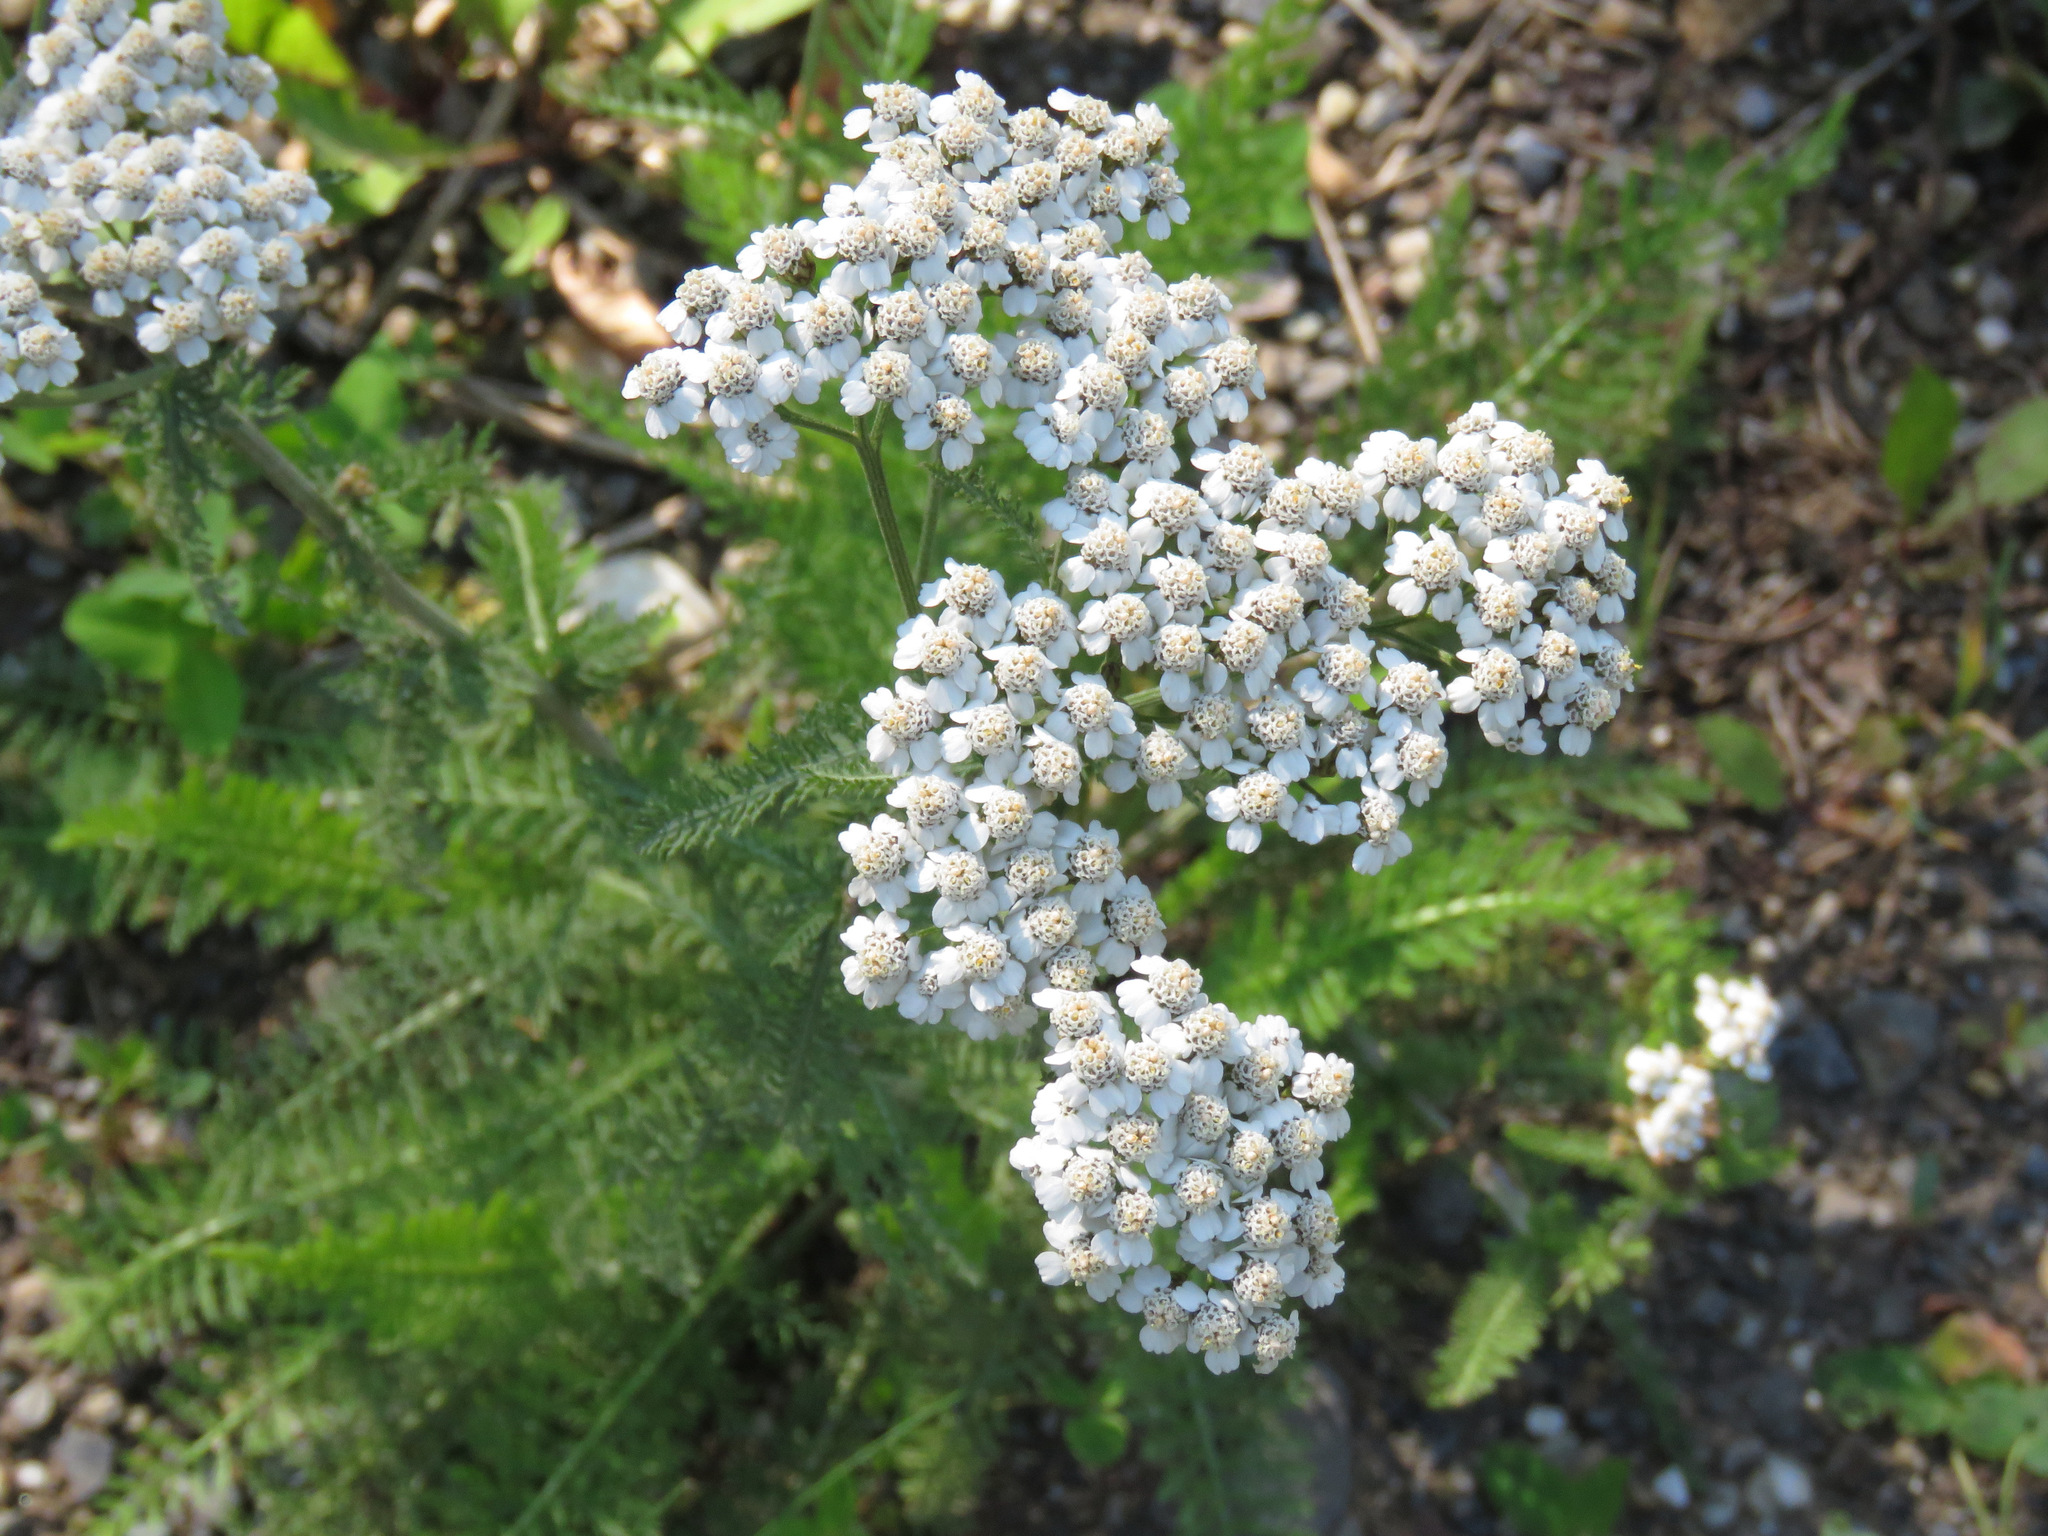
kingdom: Plantae
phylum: Tracheophyta
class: Magnoliopsida
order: Asterales
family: Asteraceae
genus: Achillea
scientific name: Achillea millefolium
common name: Yarrow
